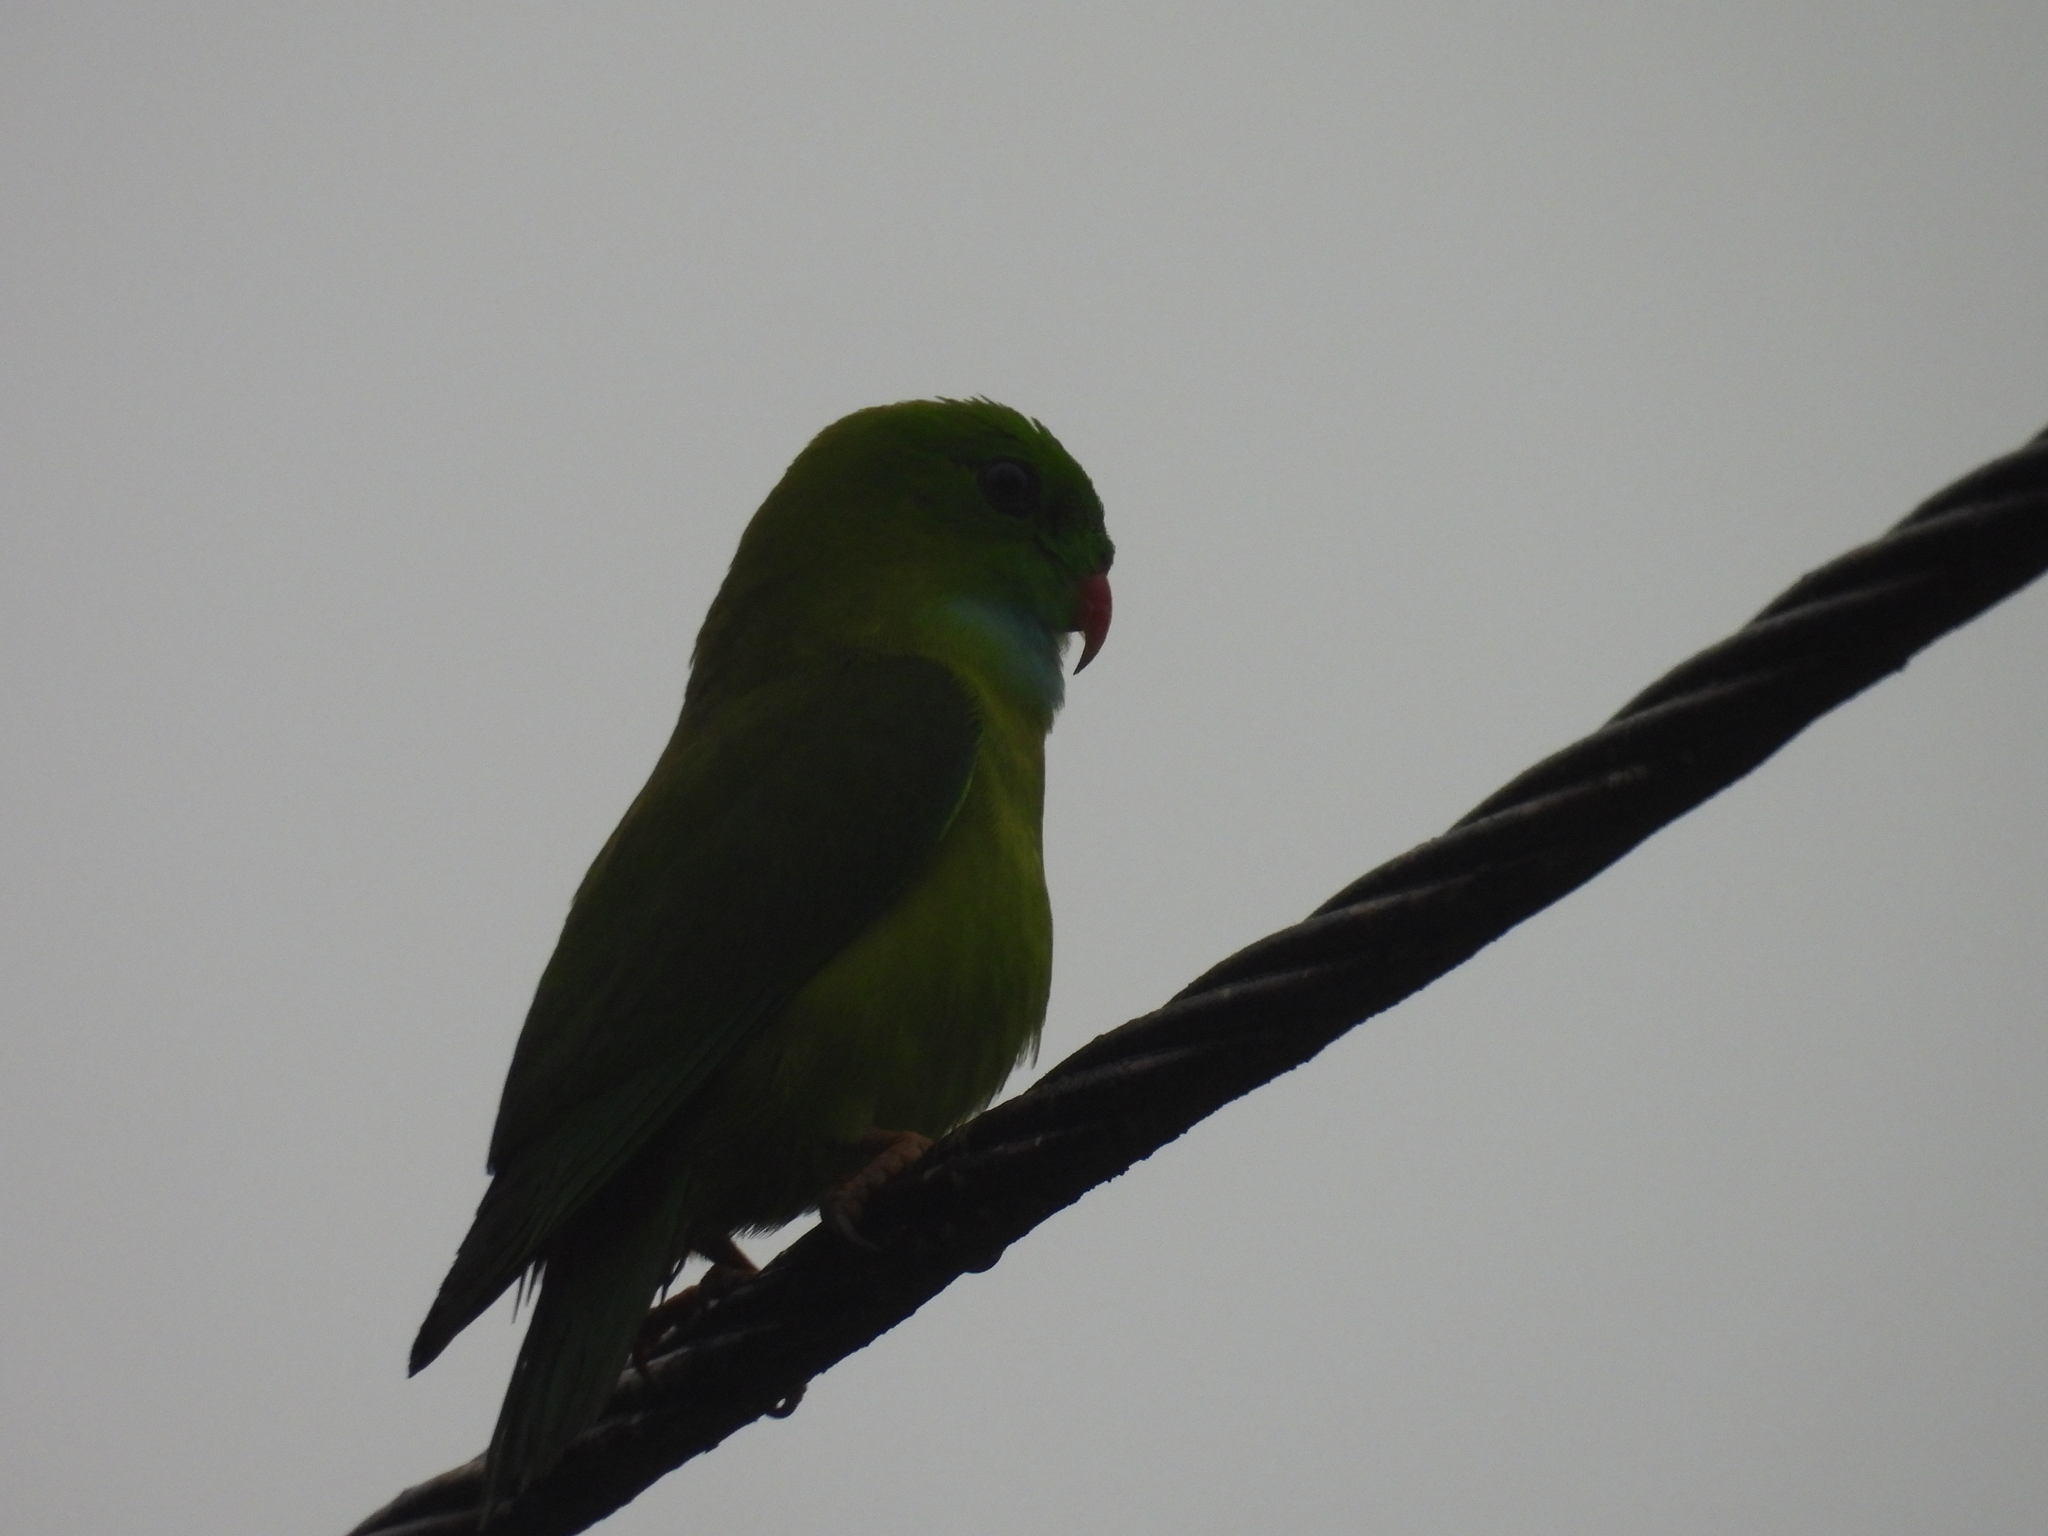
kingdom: Animalia
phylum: Chordata
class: Aves
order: Psittaciformes
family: Psittacidae
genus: Loriculus
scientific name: Loriculus vernalis
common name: Vernal hanging parrot
